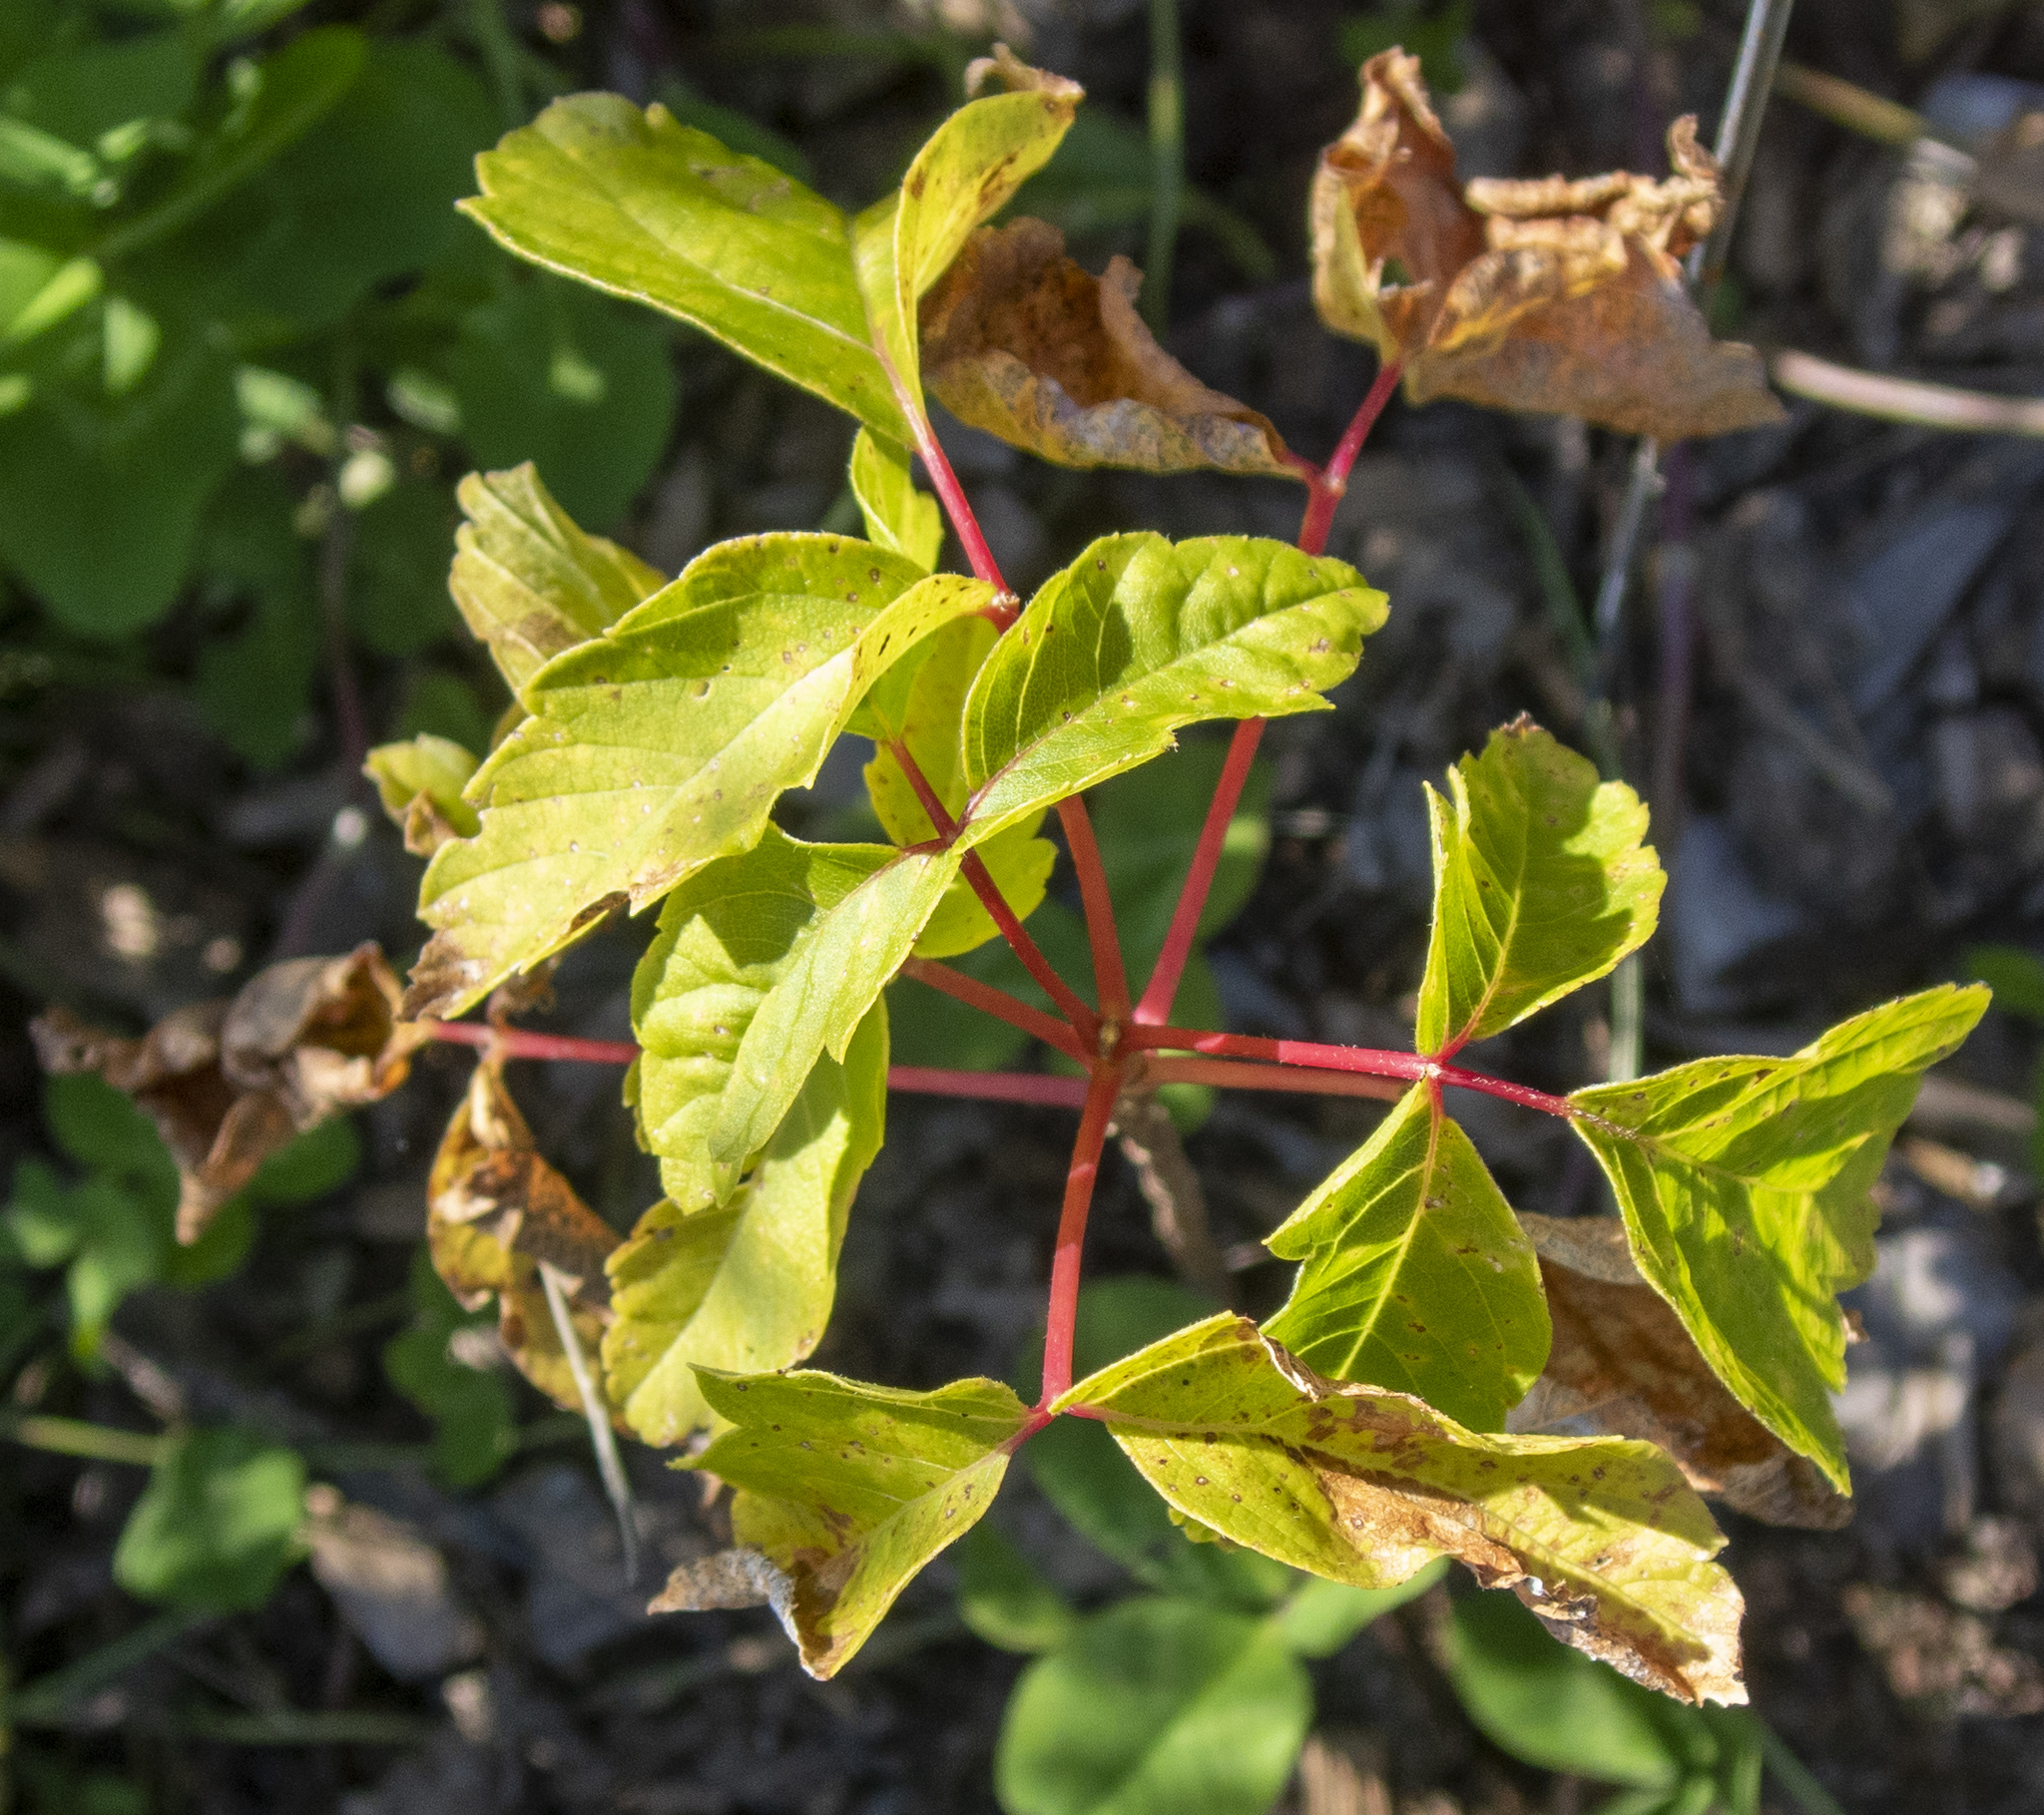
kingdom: Plantae
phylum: Tracheophyta
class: Magnoliopsida
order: Sapindales
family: Sapindaceae
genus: Acer
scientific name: Acer negundo
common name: Ashleaf maple
